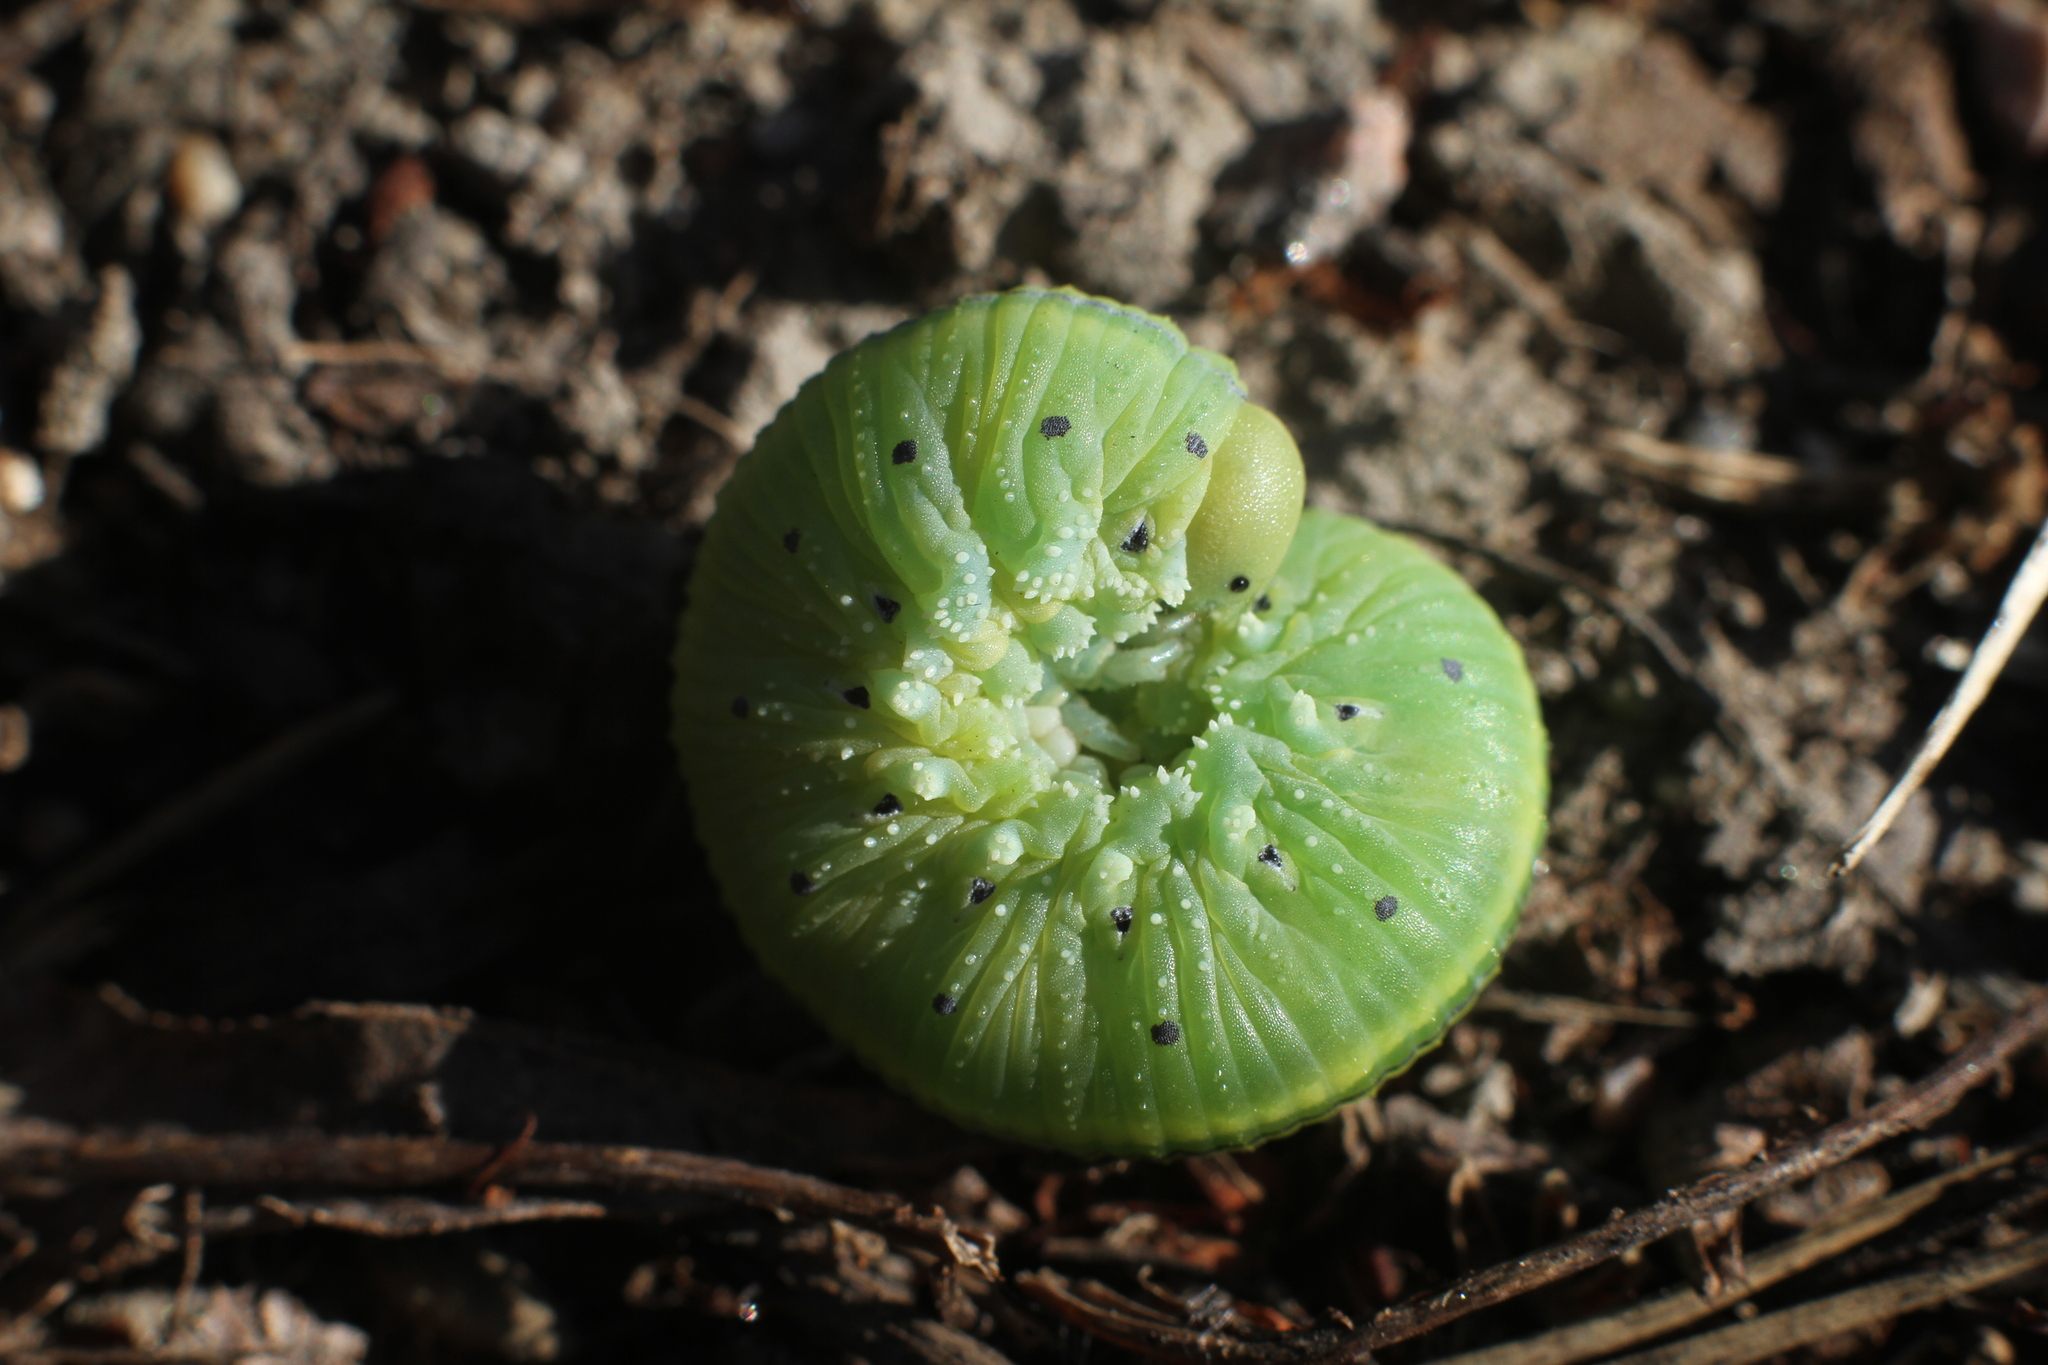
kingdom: Animalia
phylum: Arthropoda
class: Insecta
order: Hymenoptera
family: Cimbicidae
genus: Cimbex
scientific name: Cimbex connatus
